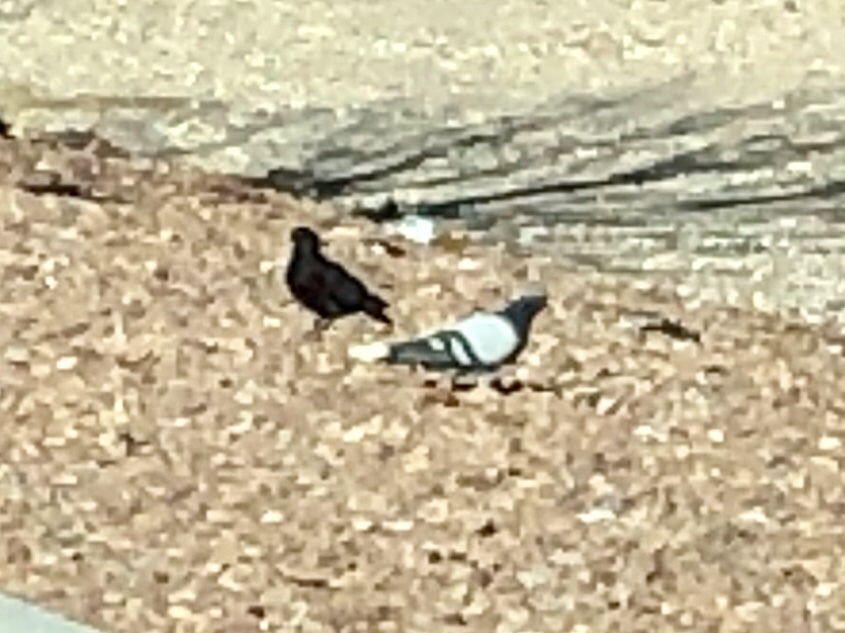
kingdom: Animalia
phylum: Chordata
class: Aves
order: Columbiformes
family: Columbidae
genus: Columba
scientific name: Columba livia
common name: Rock pigeon
